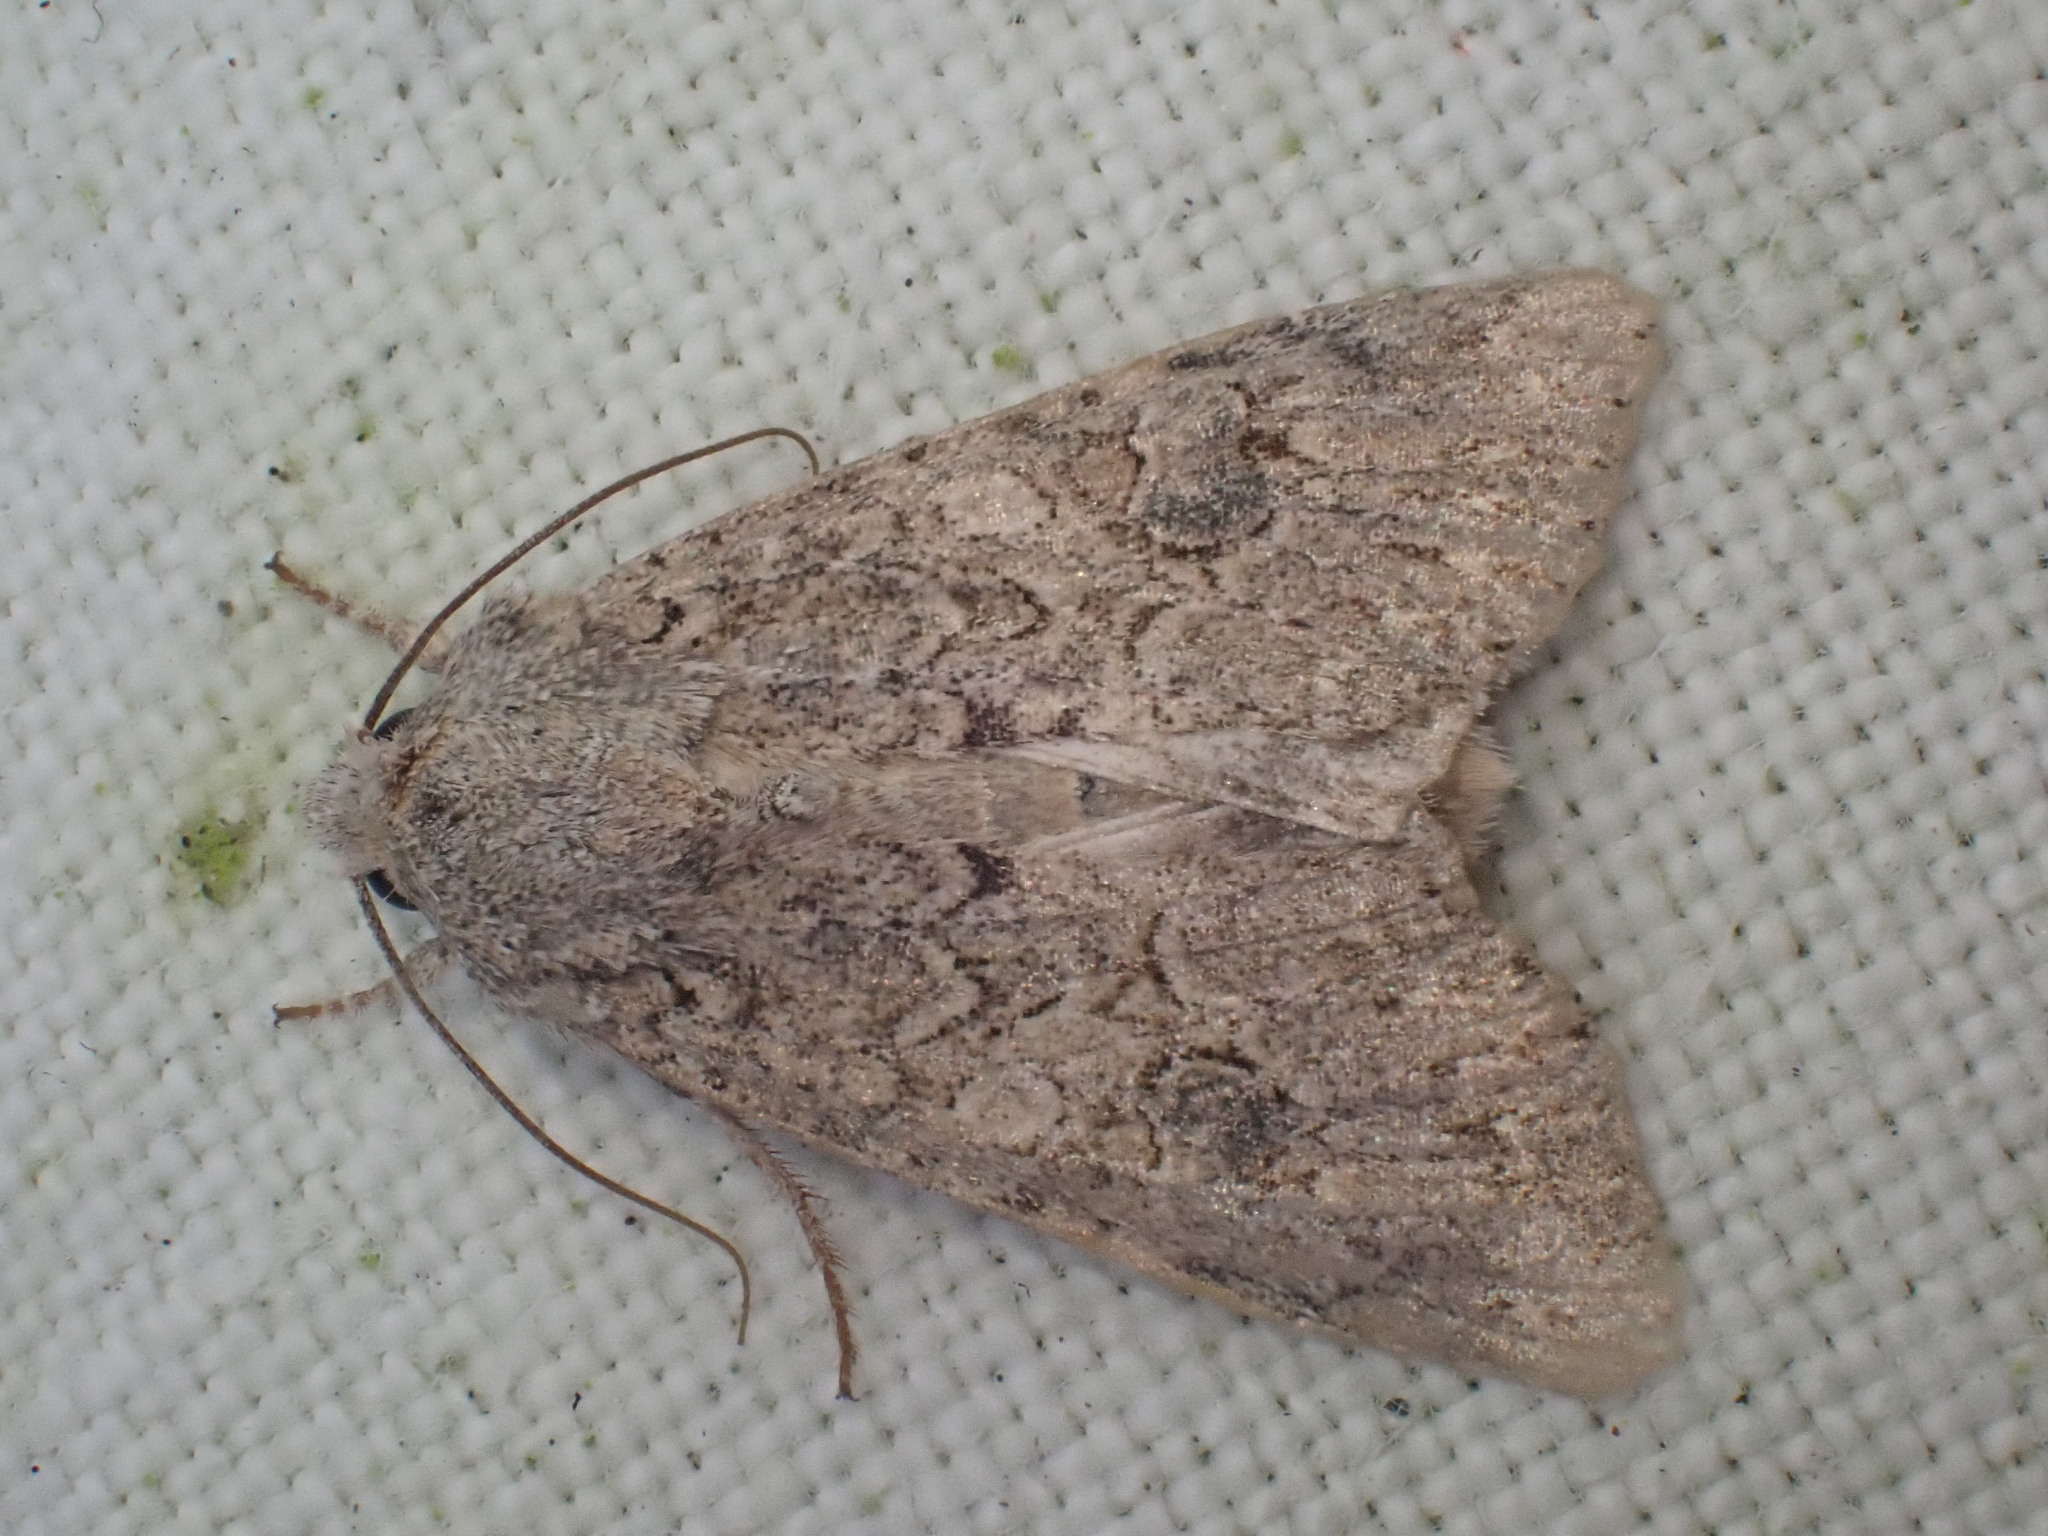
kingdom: Animalia
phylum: Arthropoda
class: Insecta
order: Lepidoptera
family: Noctuidae
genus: Anarta
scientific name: Anarta trifolii
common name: Clover cutworm moth
